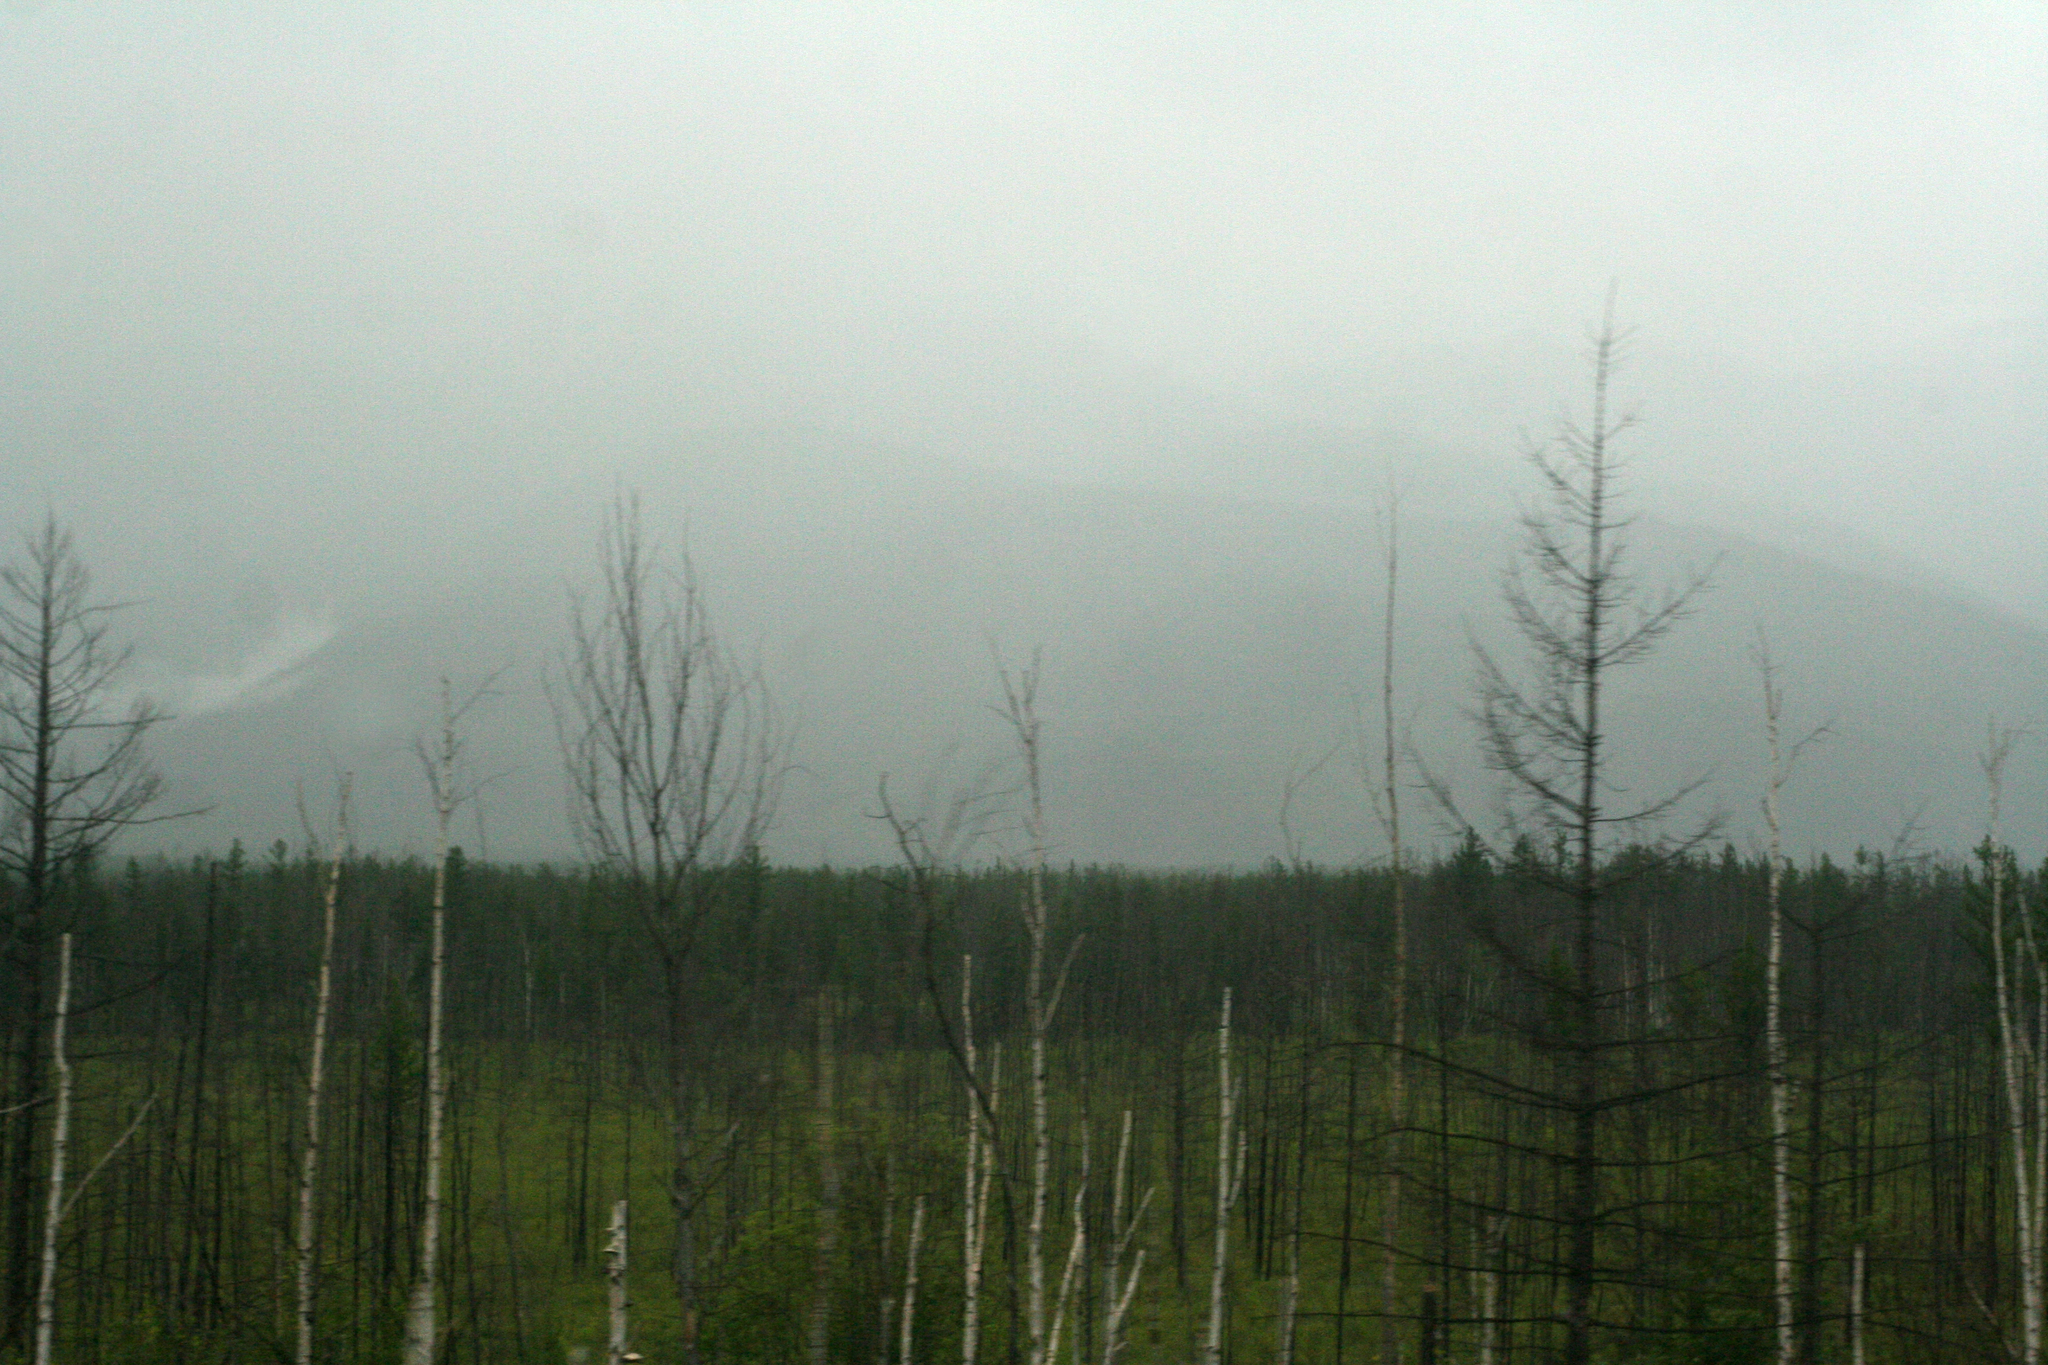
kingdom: Plantae
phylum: Tracheophyta
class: Pinopsida
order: Pinales
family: Pinaceae
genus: Larix
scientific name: Larix gmelinii
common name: Dahurian larch
